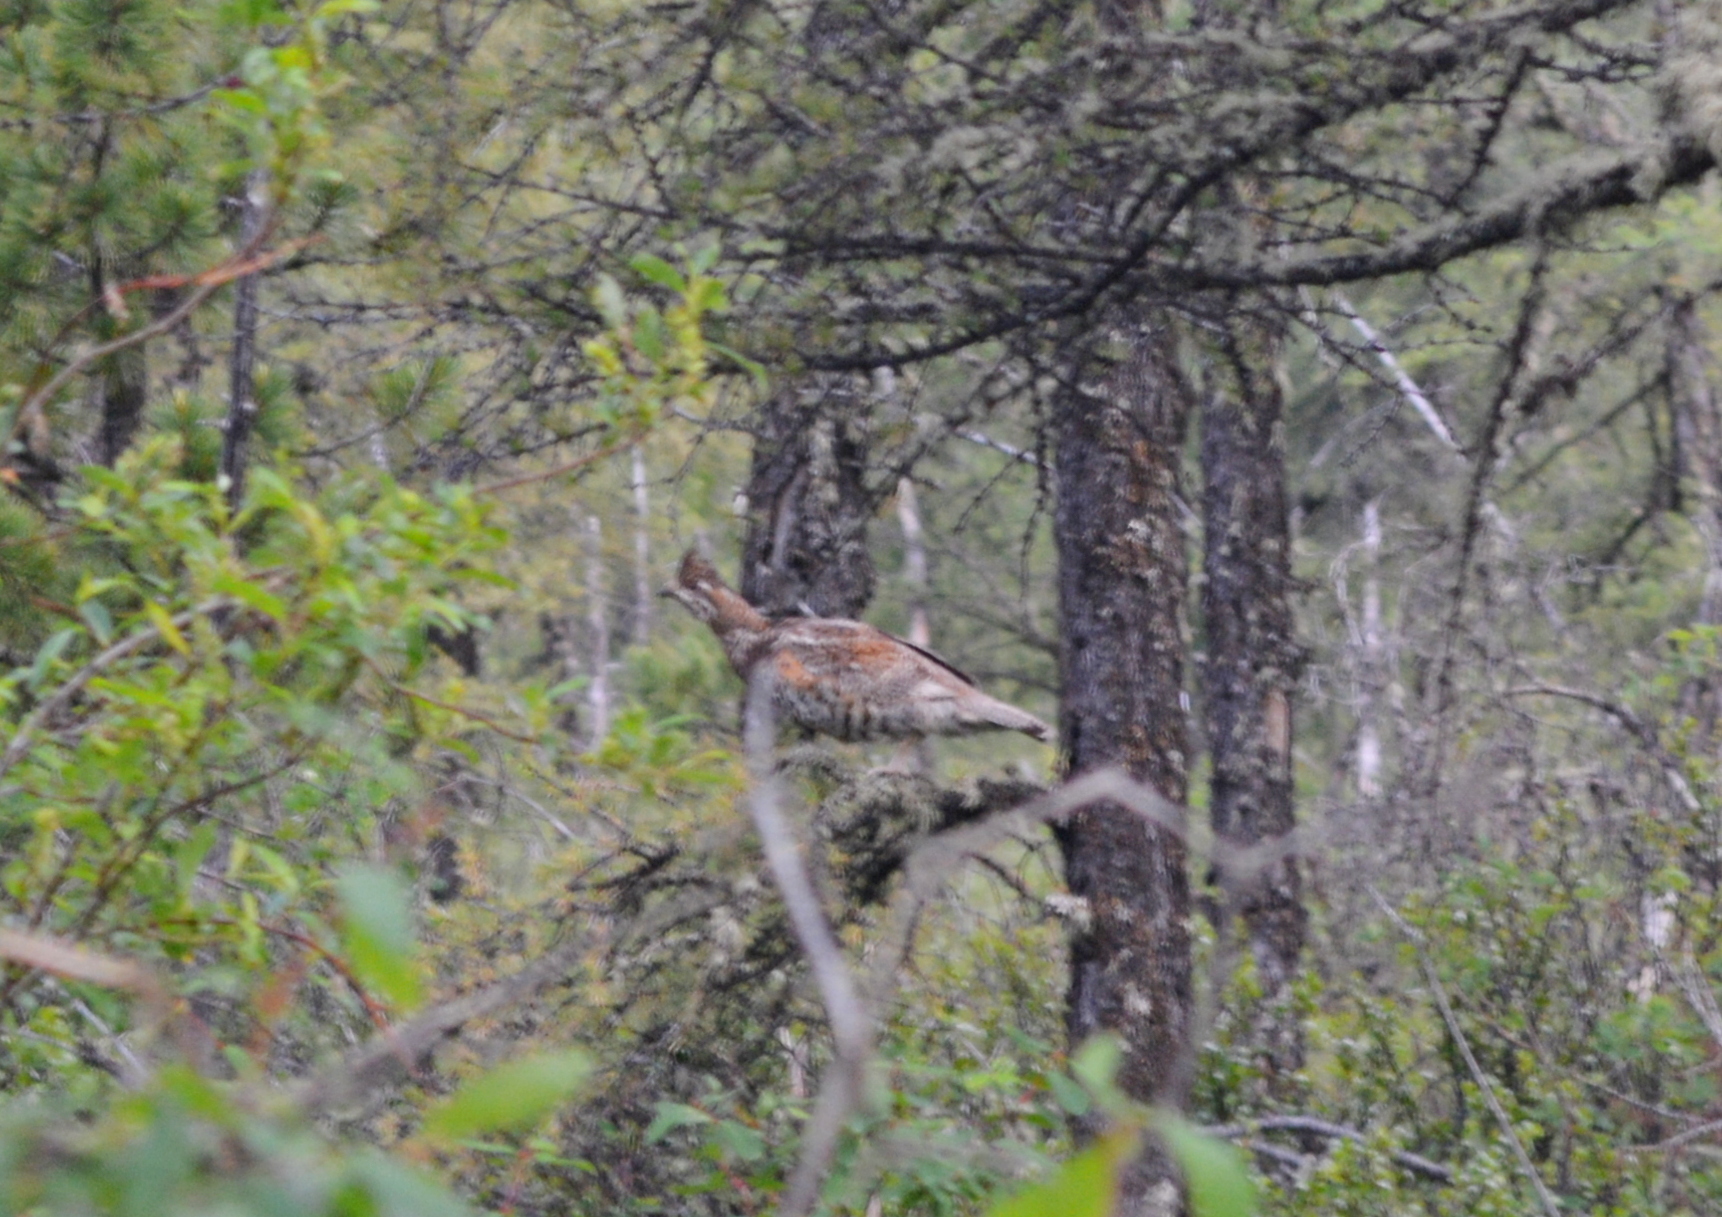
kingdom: Animalia
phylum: Chordata
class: Aves
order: Galliformes
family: Phasianidae
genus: Tetrastes
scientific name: Tetrastes bonasia
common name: Hazel grouse
